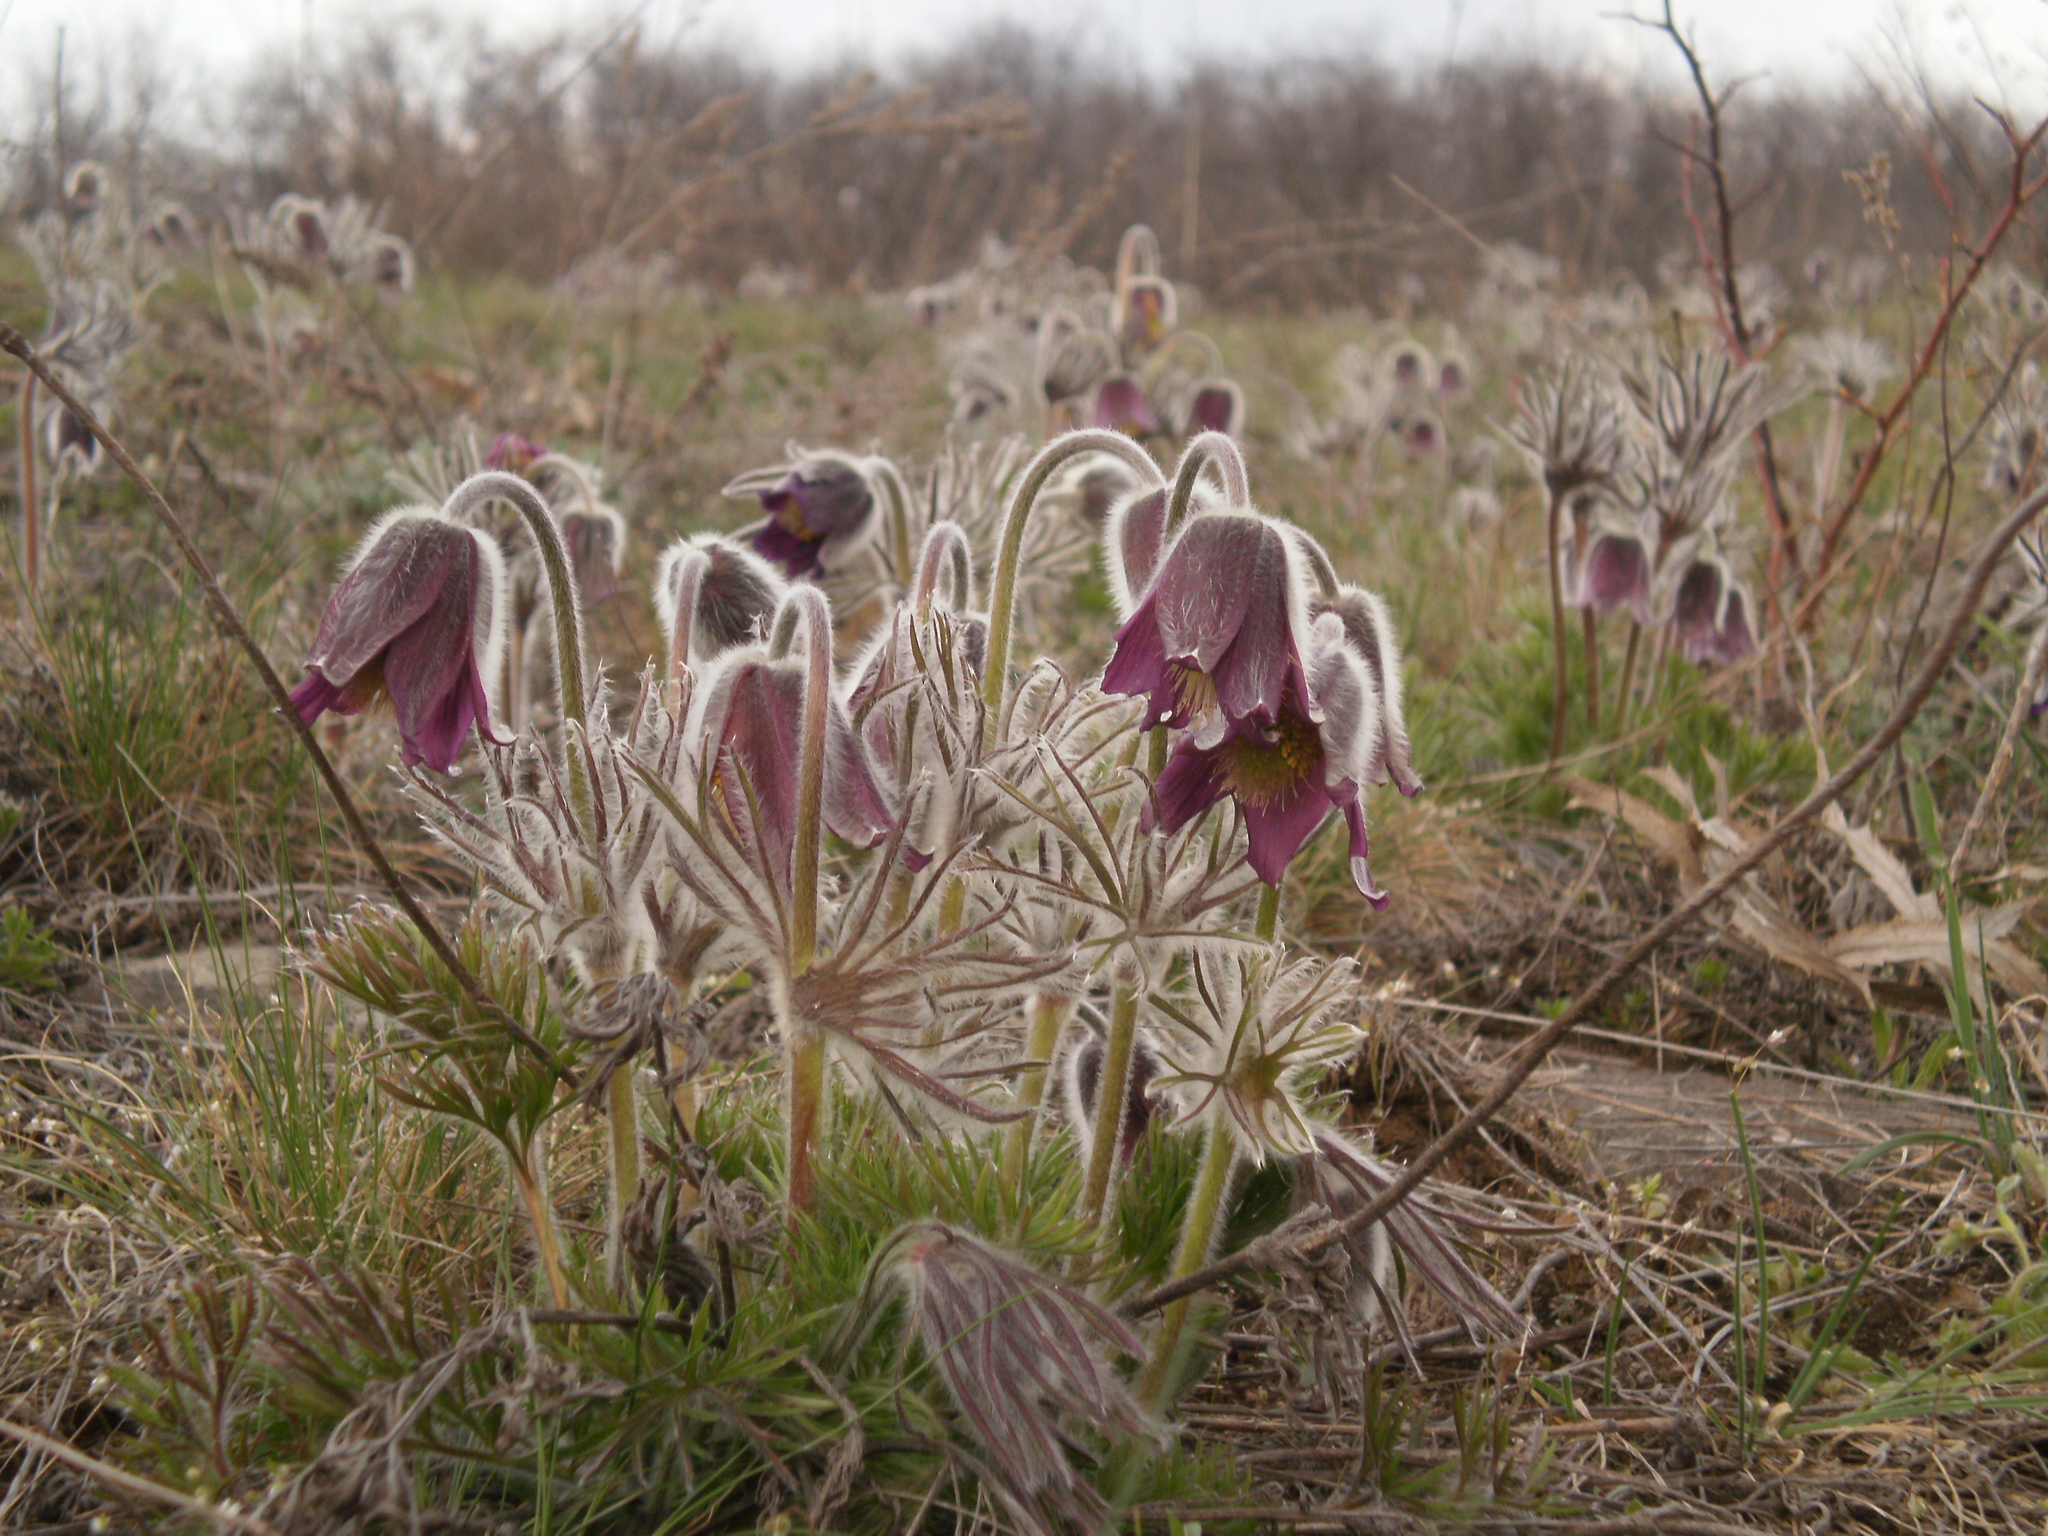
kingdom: Plantae
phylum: Tracheophyta
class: Magnoliopsida
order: Ranunculales
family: Ranunculaceae
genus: Pulsatilla
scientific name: Pulsatilla pratensis
